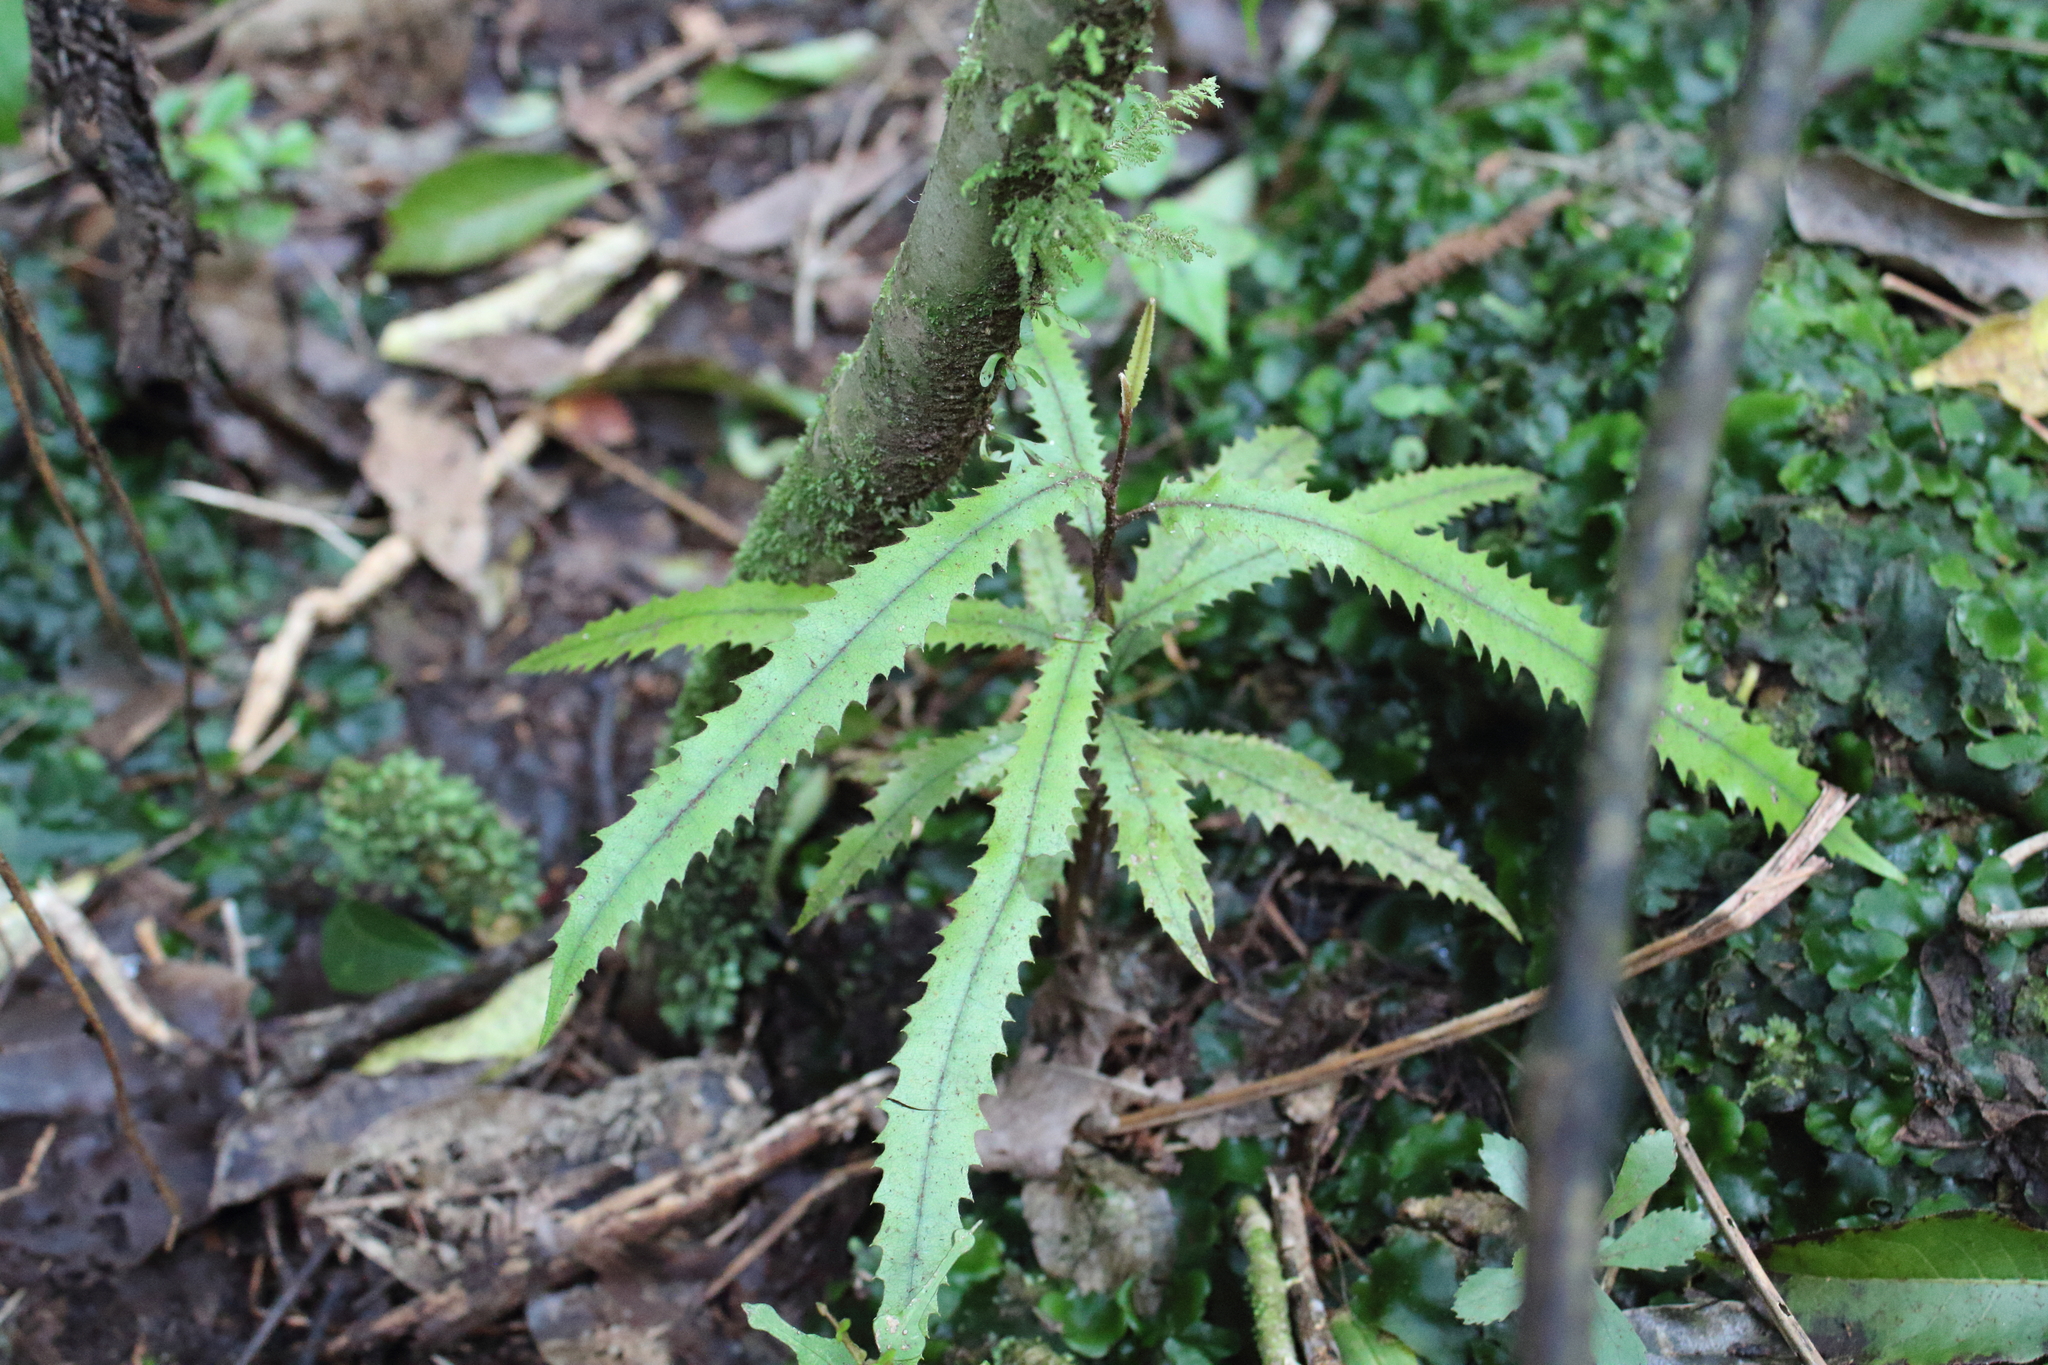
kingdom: Plantae
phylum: Tracheophyta
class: Magnoliopsida
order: Proteales
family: Proteaceae
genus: Knightia
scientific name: Knightia excelsa
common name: New zealand-honeysuckle
